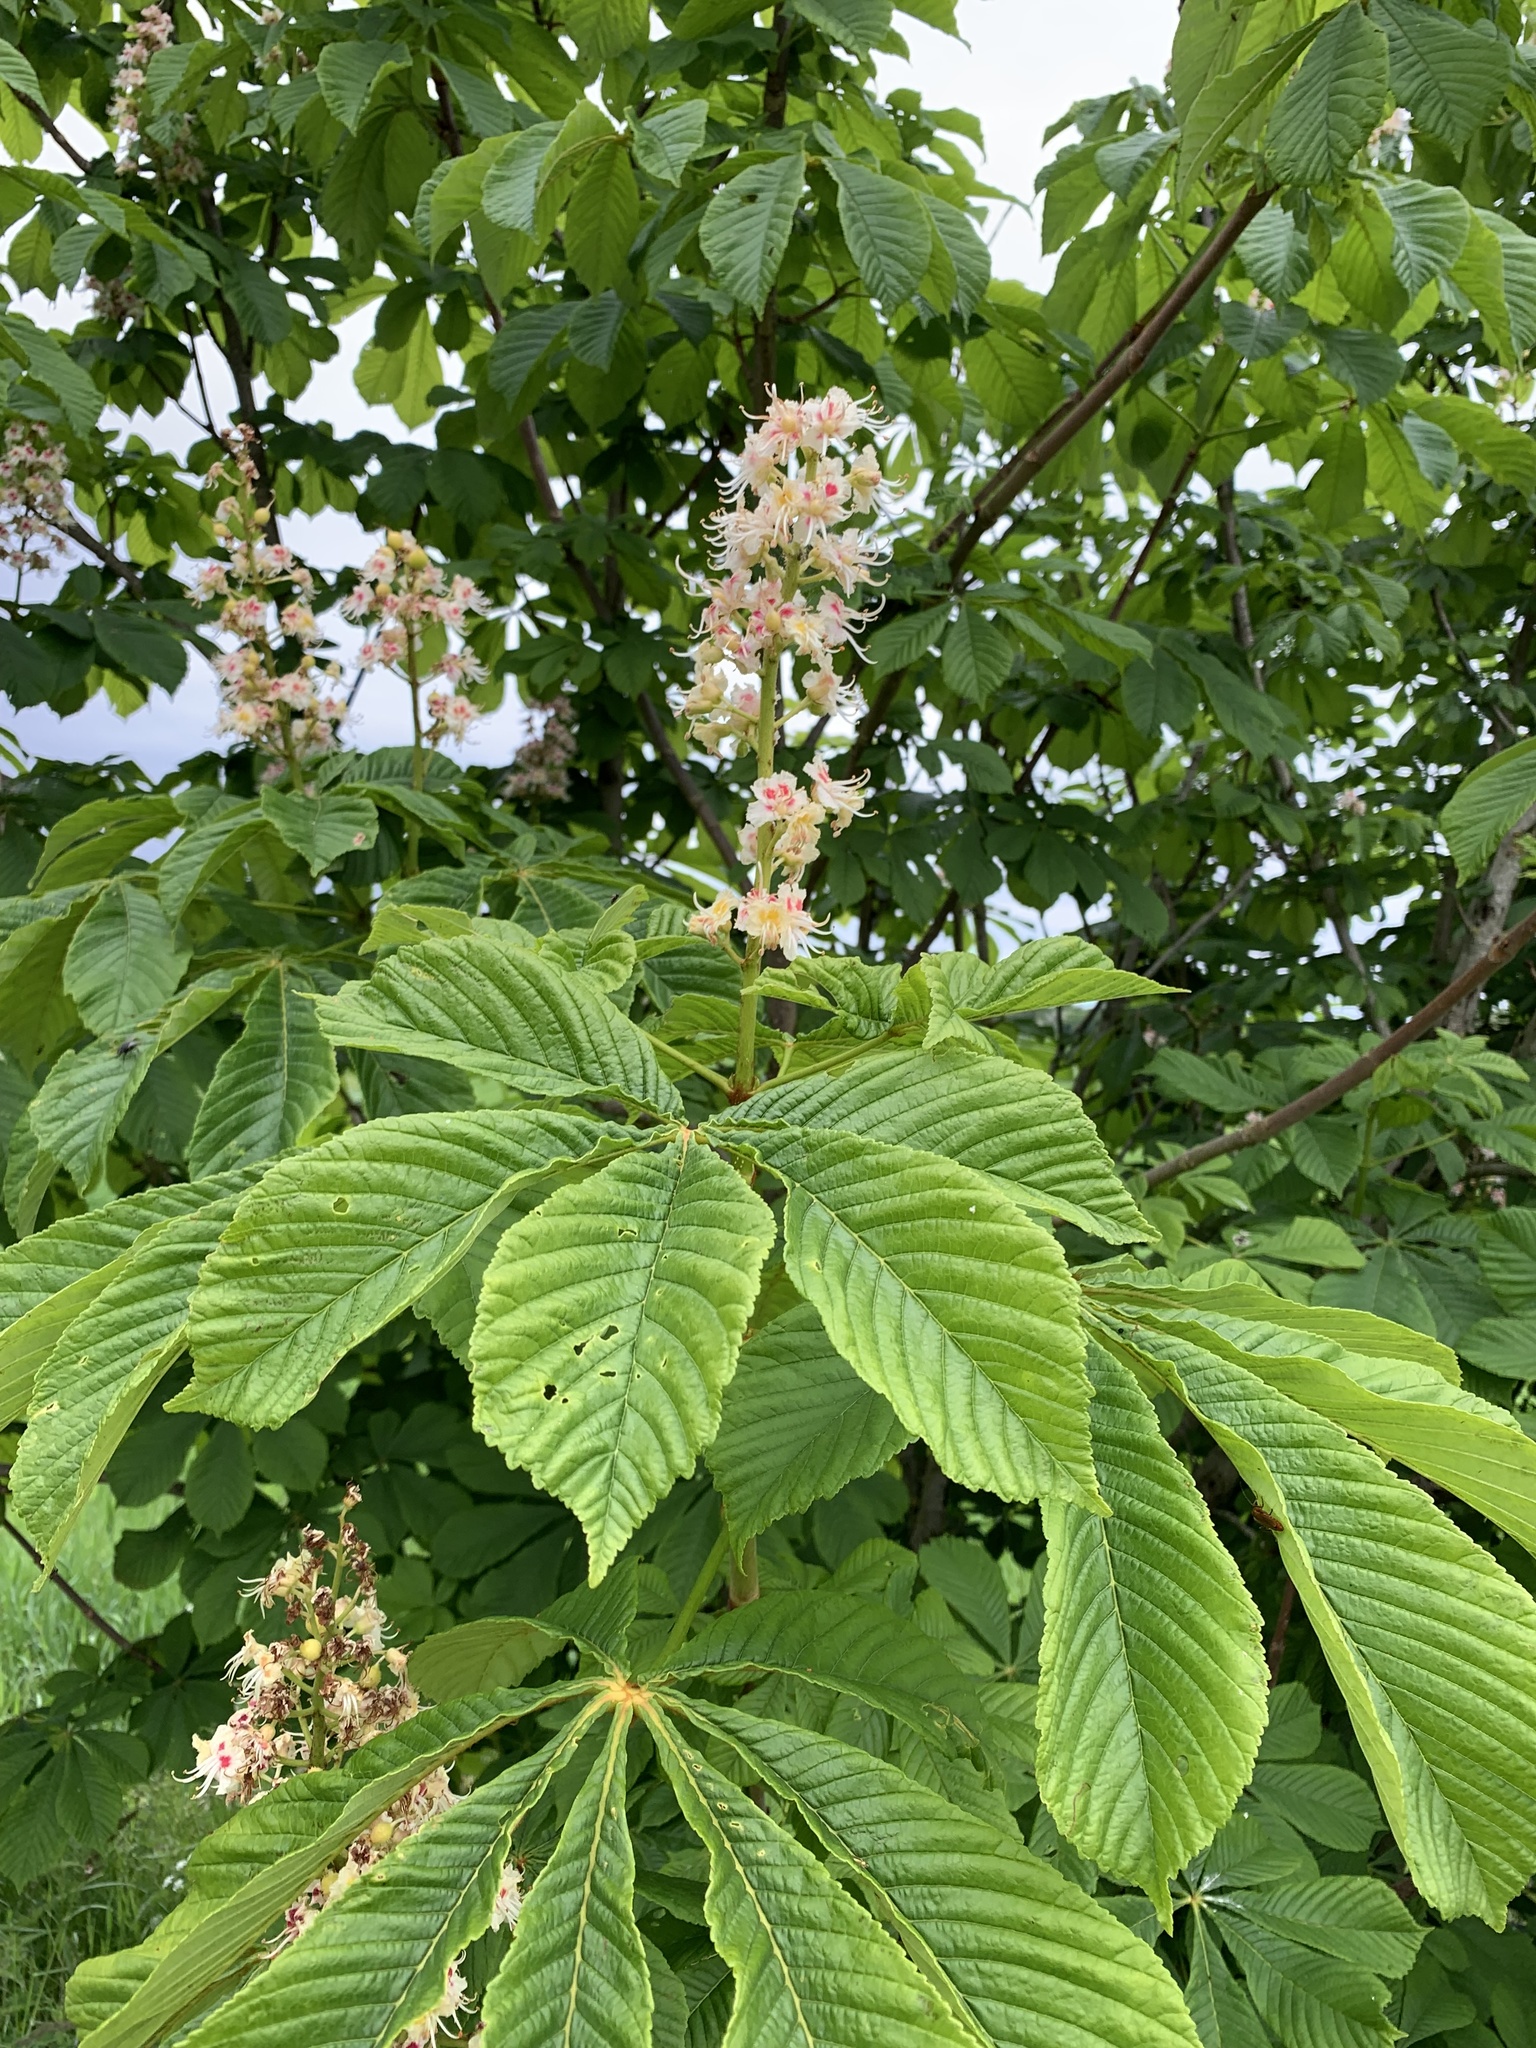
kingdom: Plantae
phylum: Tracheophyta
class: Magnoliopsida
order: Sapindales
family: Sapindaceae
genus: Aesculus
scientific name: Aesculus hippocastanum
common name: Horse-chestnut
